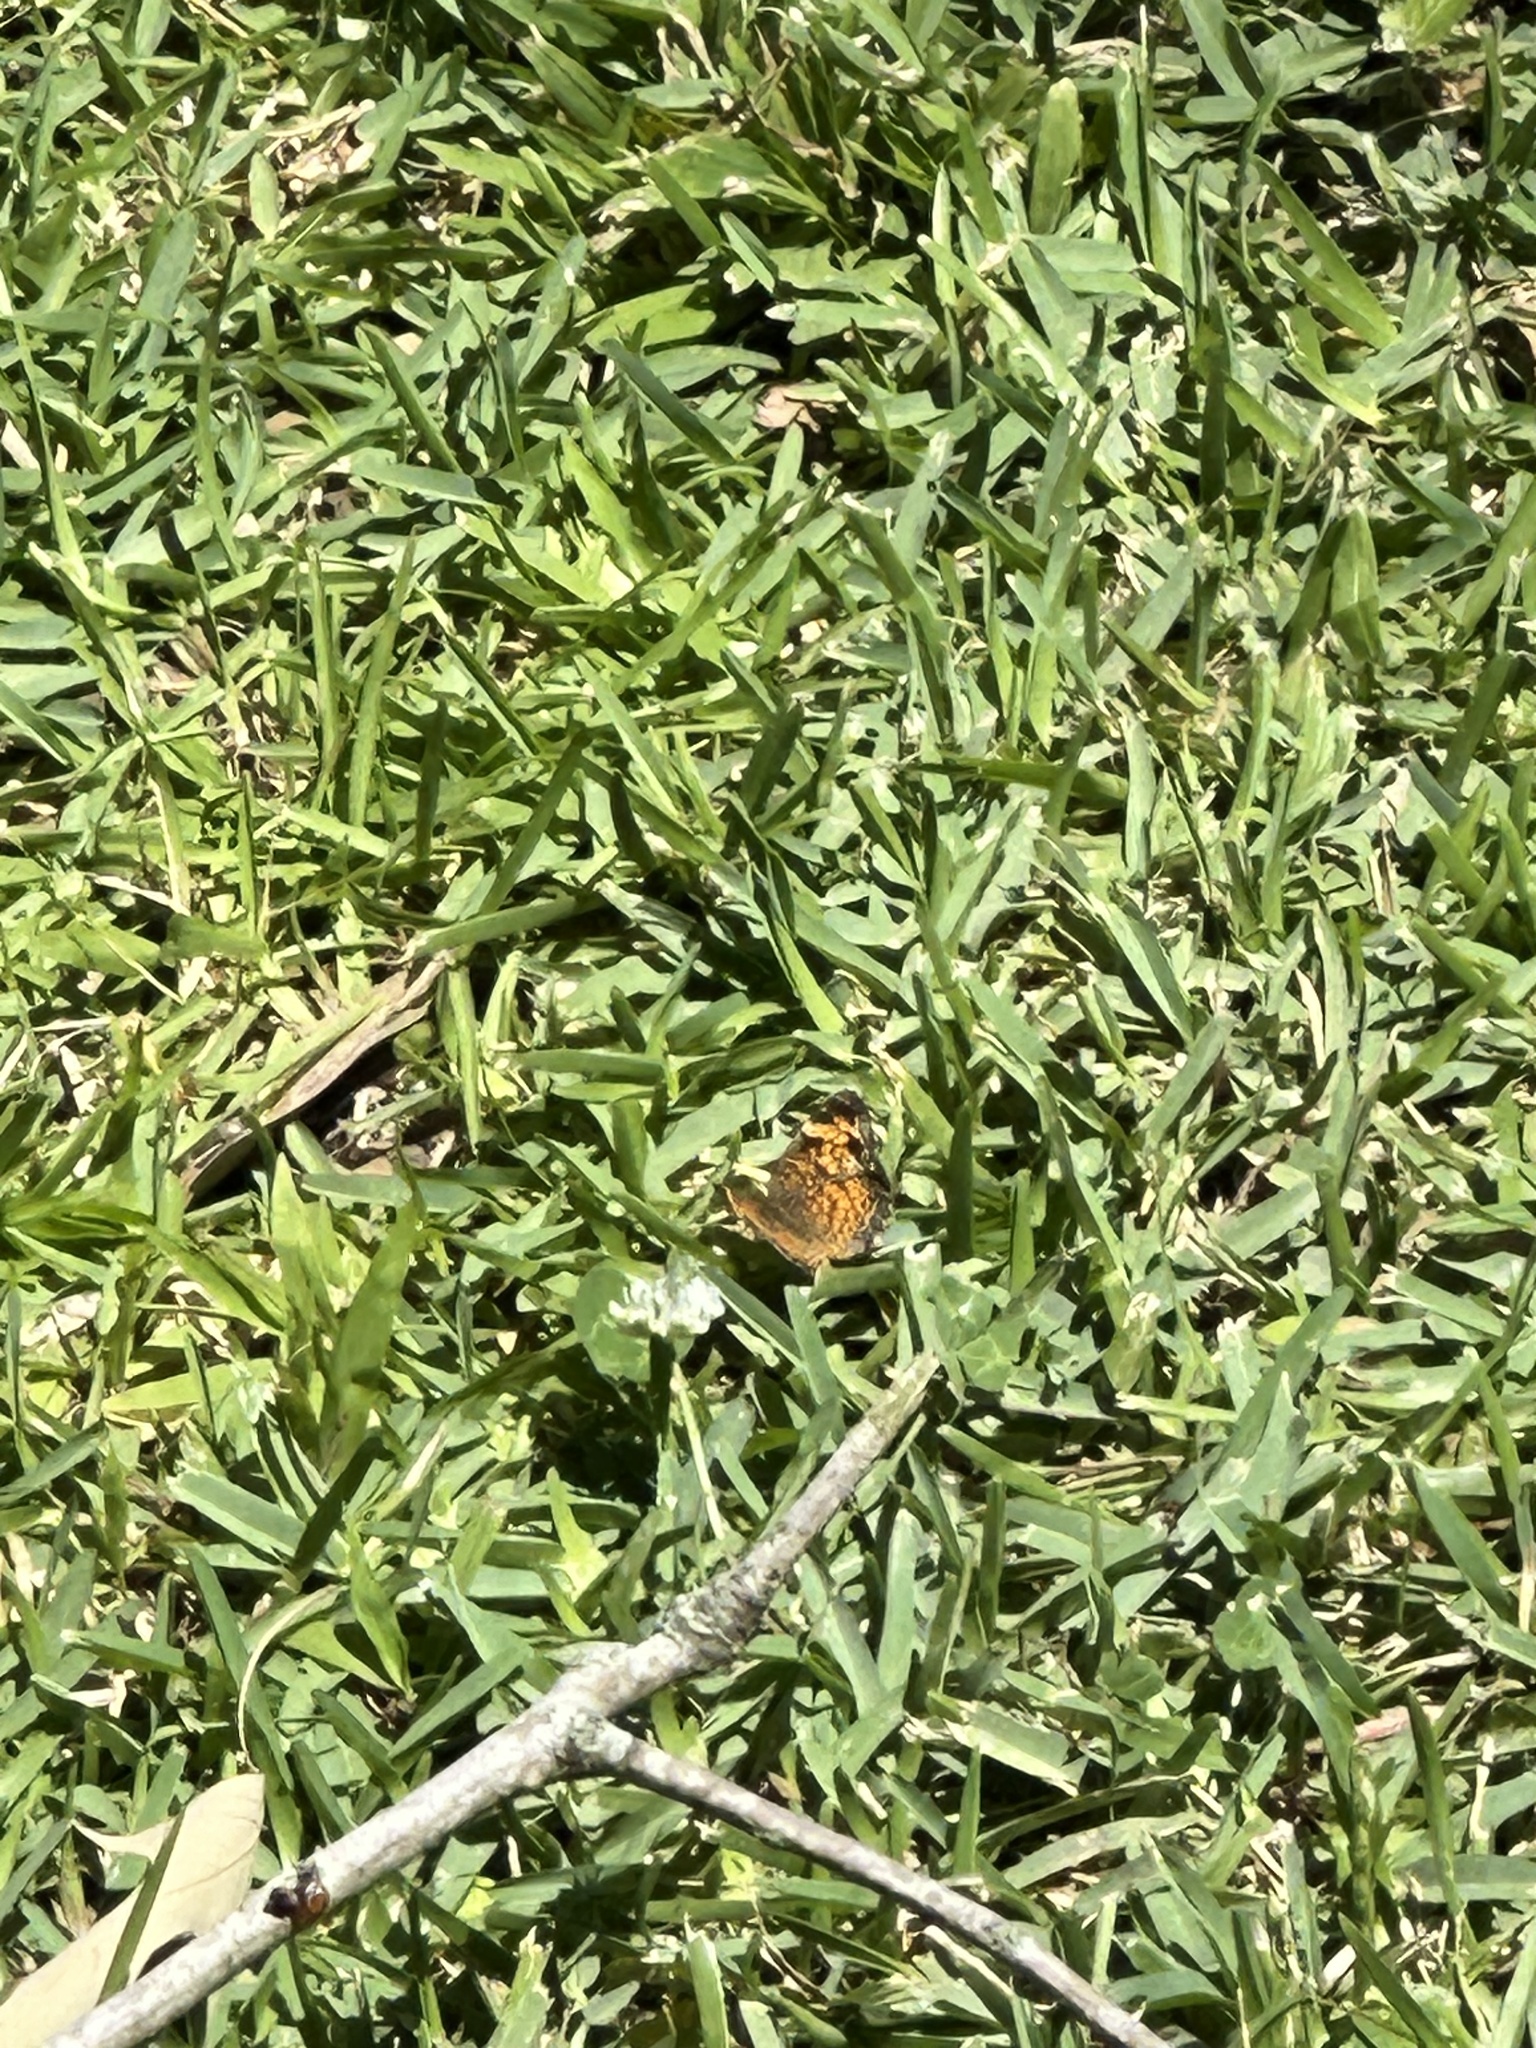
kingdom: Animalia
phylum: Arthropoda
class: Insecta
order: Lepidoptera
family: Nymphalidae
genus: Phyciodes
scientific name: Phyciodes tharos
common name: Pearl crescent
